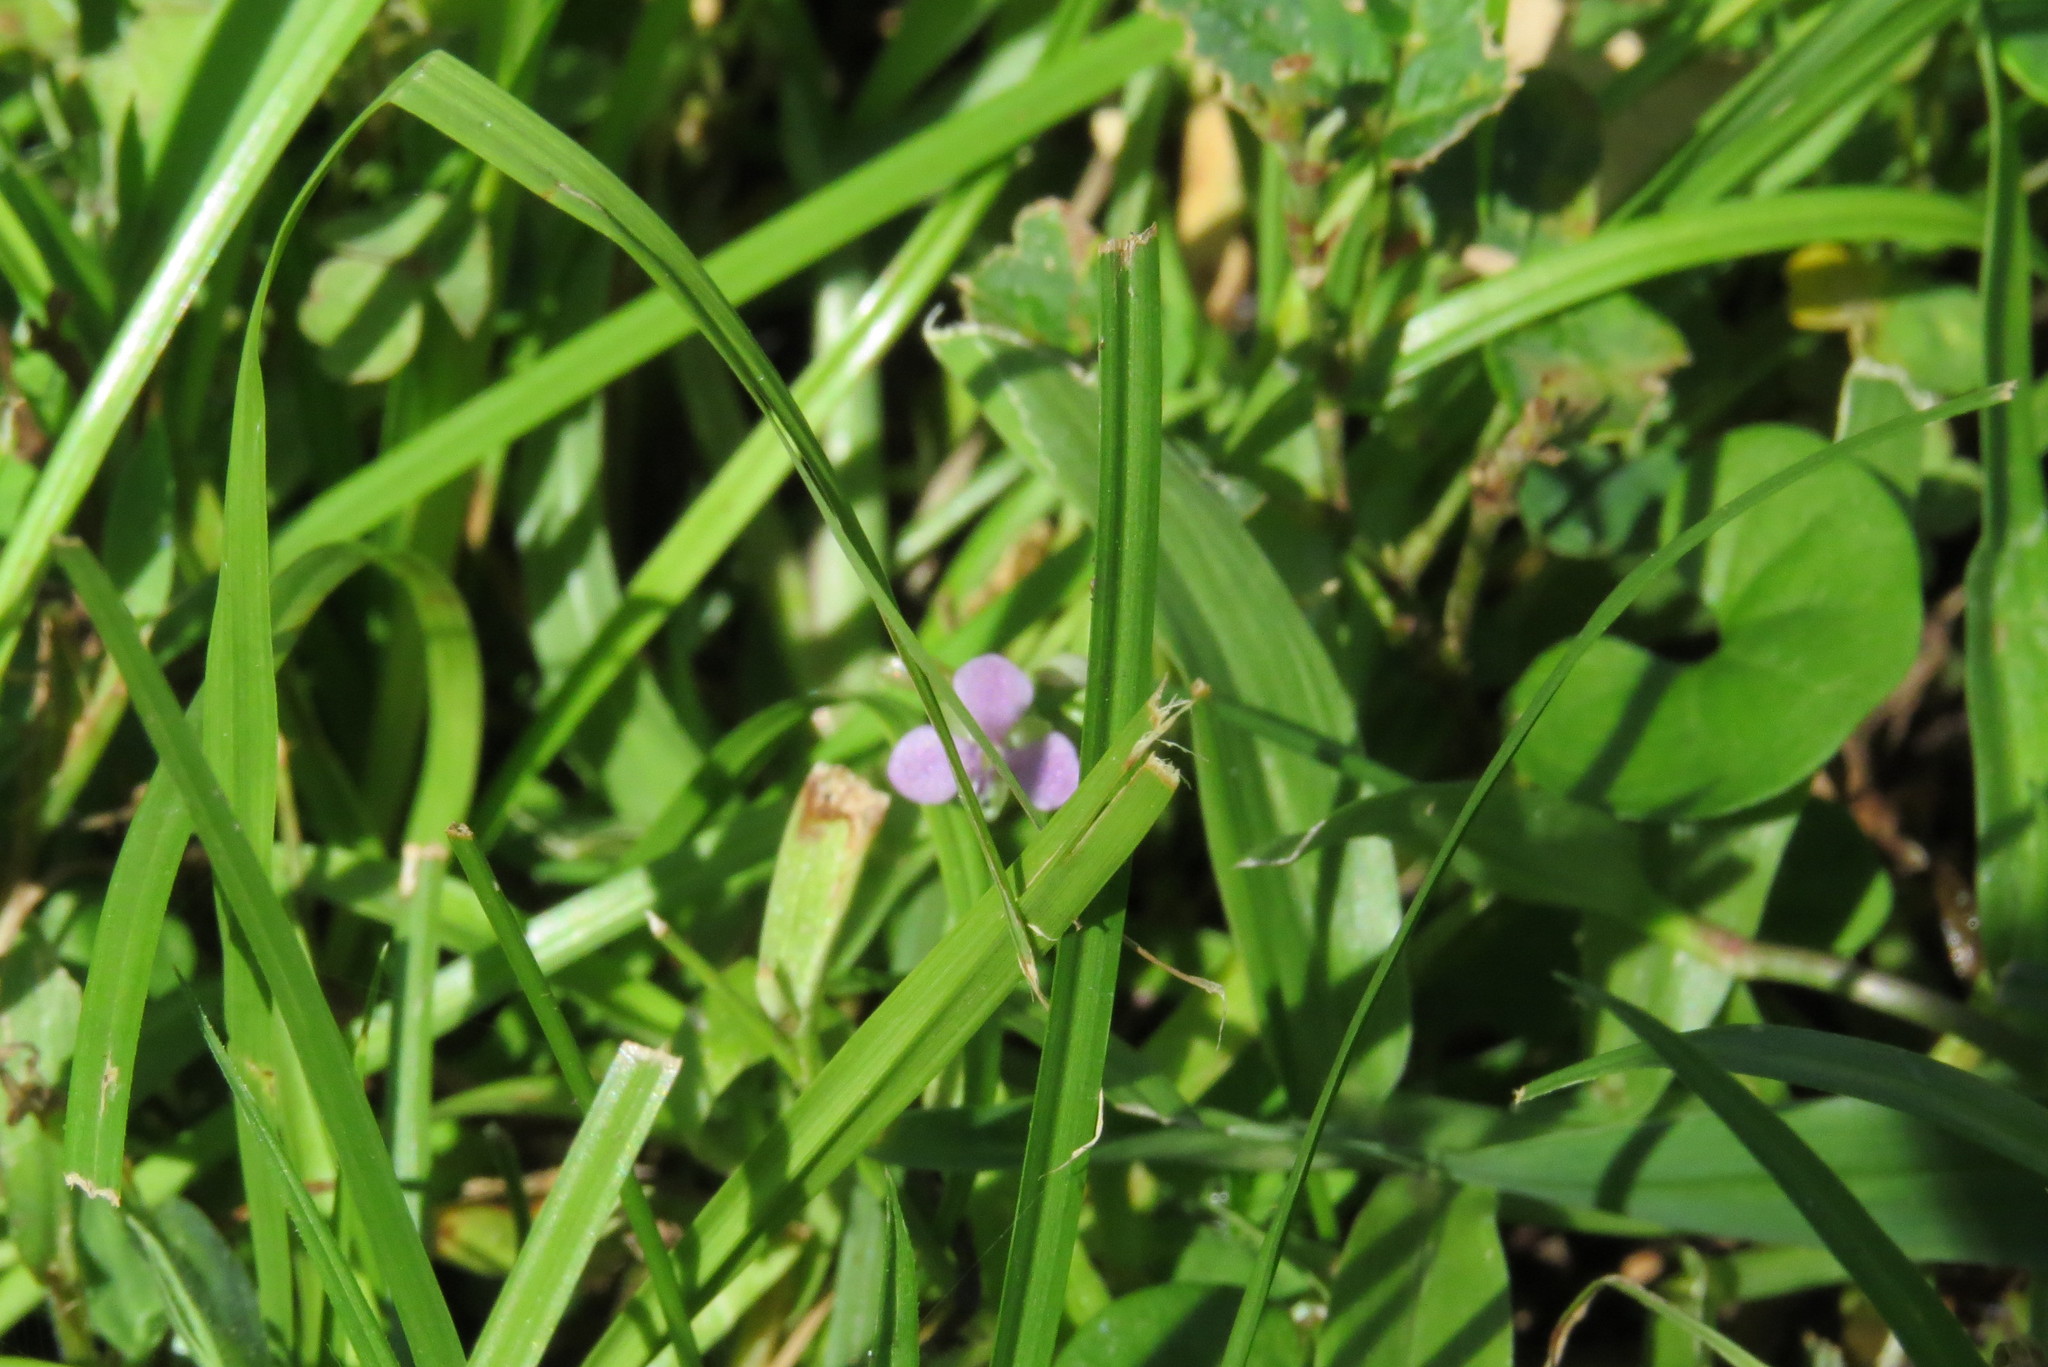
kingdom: Plantae
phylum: Tracheophyta
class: Liliopsida
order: Commelinales
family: Commelinaceae
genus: Murdannia
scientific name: Murdannia nudiflora
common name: Nakedstem dewflower
